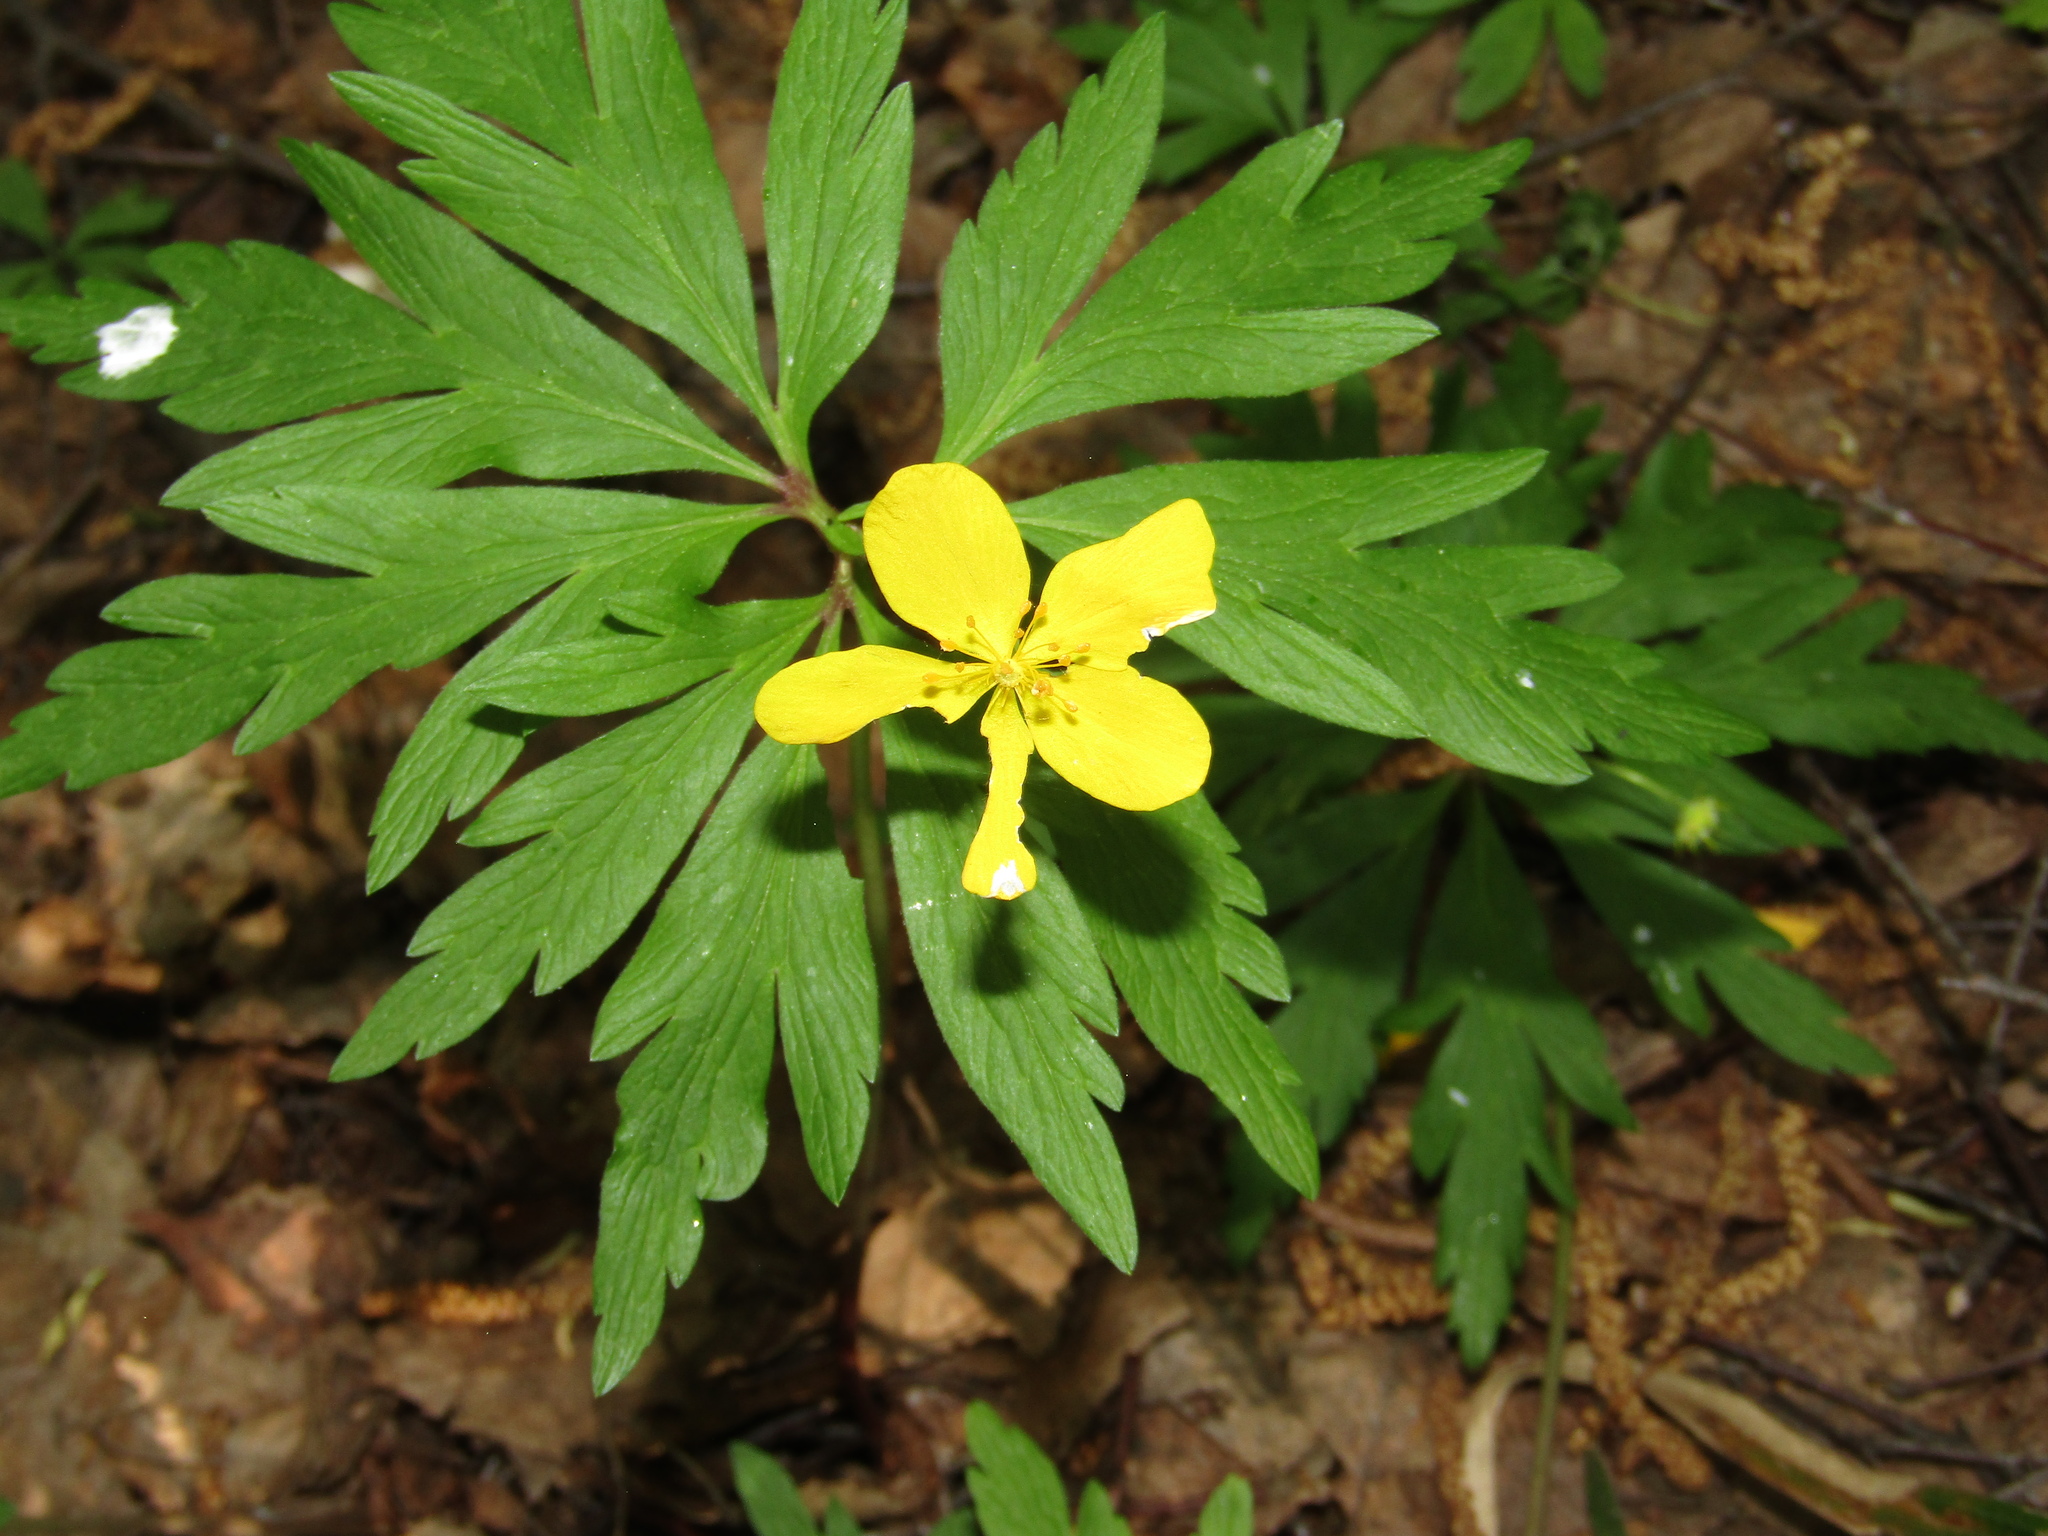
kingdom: Plantae
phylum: Tracheophyta
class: Magnoliopsida
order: Ranunculales
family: Ranunculaceae
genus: Anemone
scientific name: Anemone ranunculoides
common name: Yellow anemone
